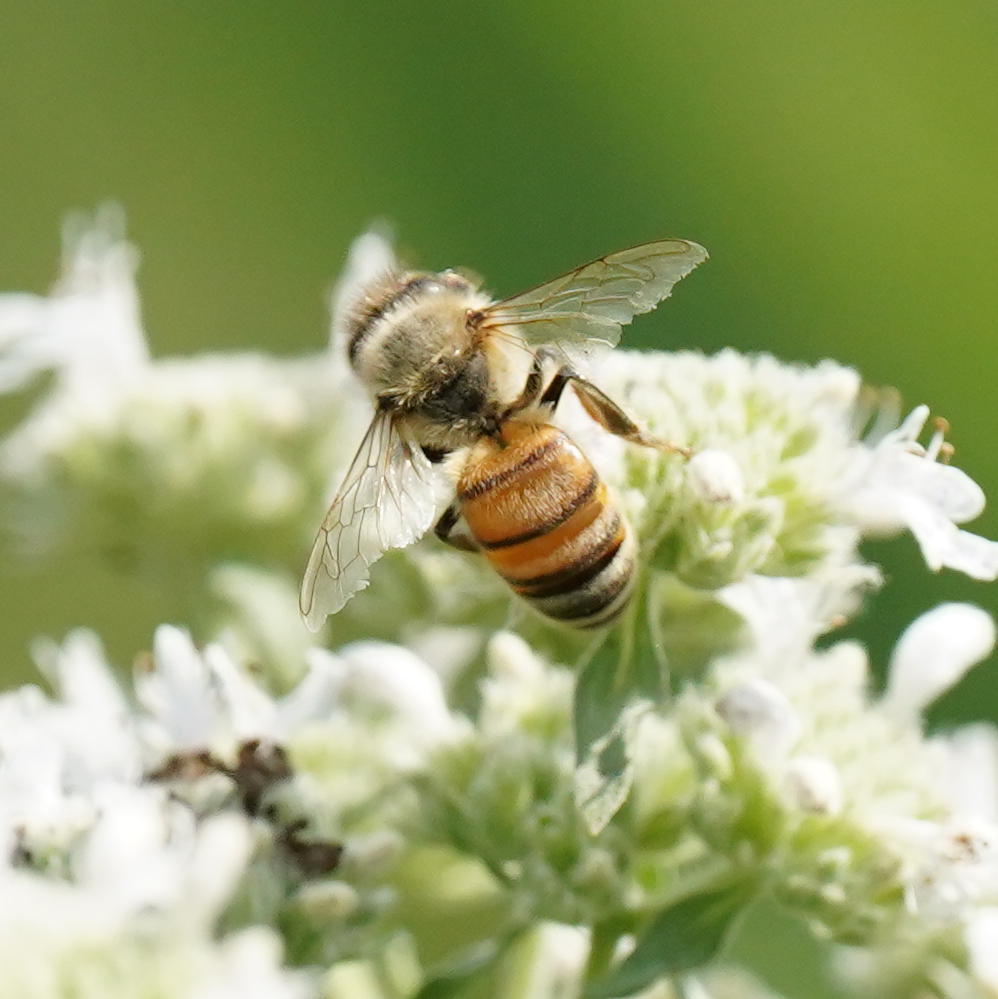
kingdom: Animalia
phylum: Arthropoda
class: Insecta
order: Hymenoptera
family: Apidae
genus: Apis
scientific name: Apis mellifera
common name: Honey bee
